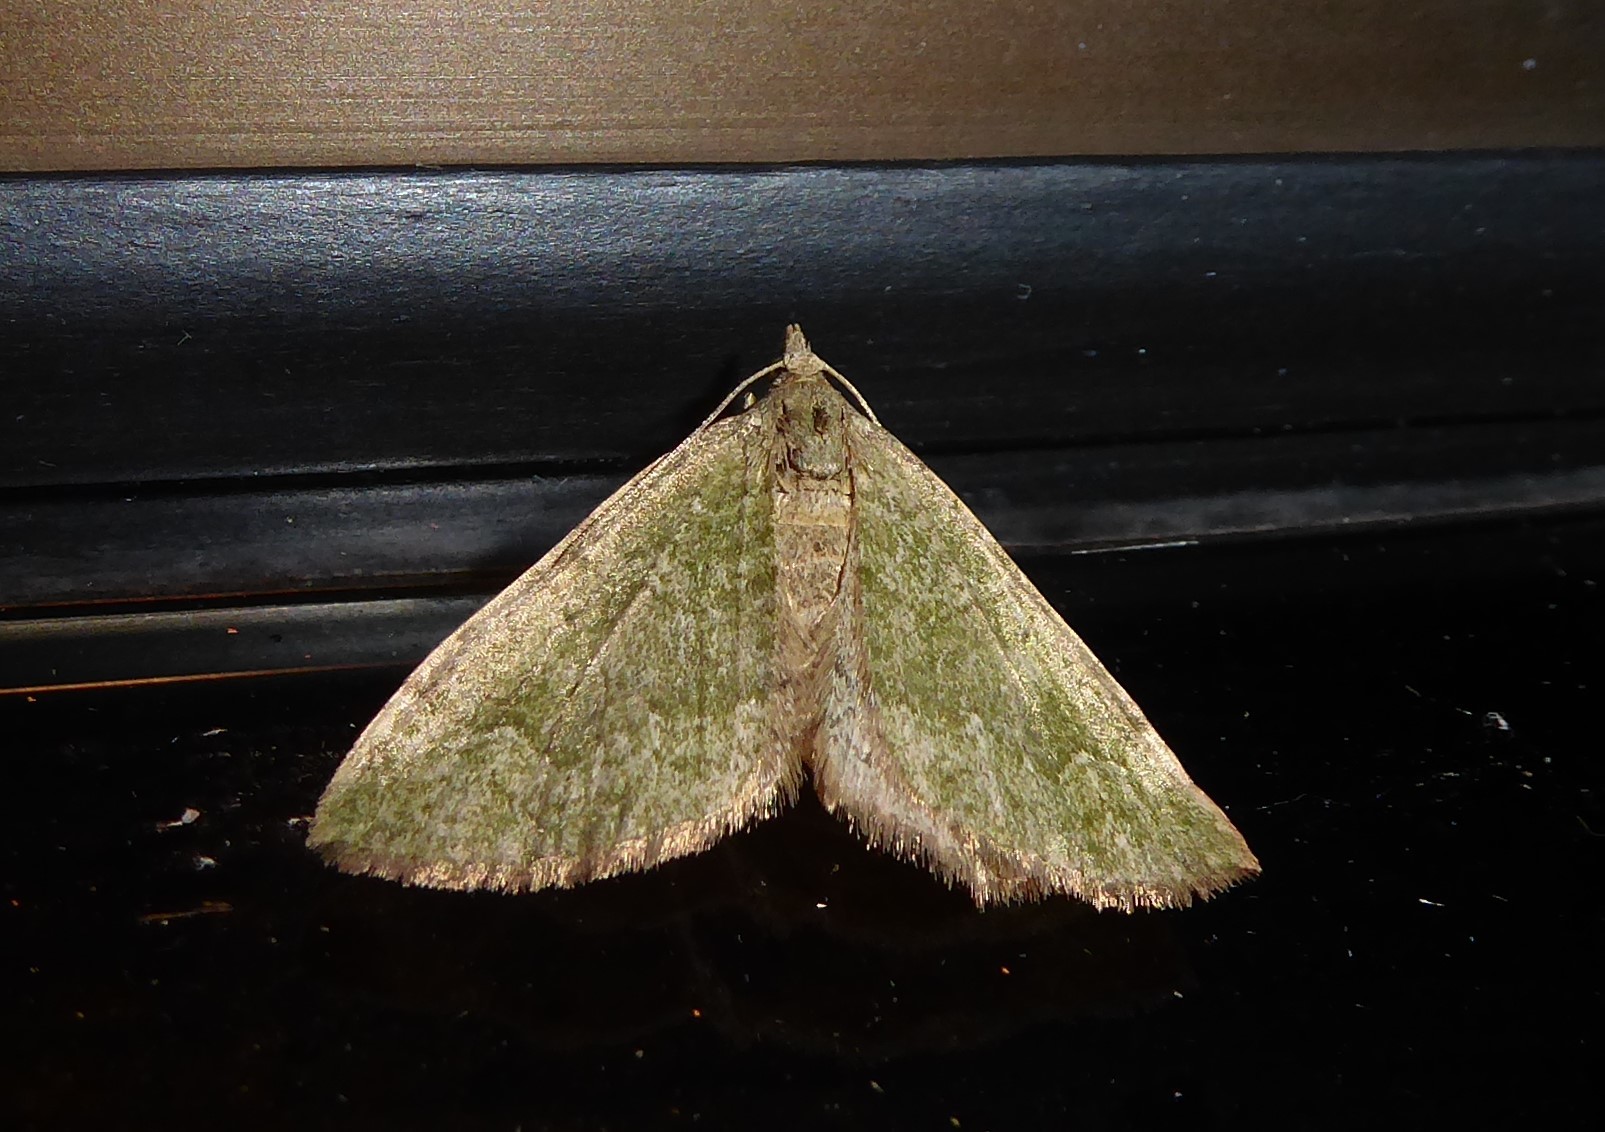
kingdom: Animalia
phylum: Arthropoda
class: Insecta
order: Lepidoptera
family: Geometridae
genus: Epyaxa
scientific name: Epyaxa rosearia
